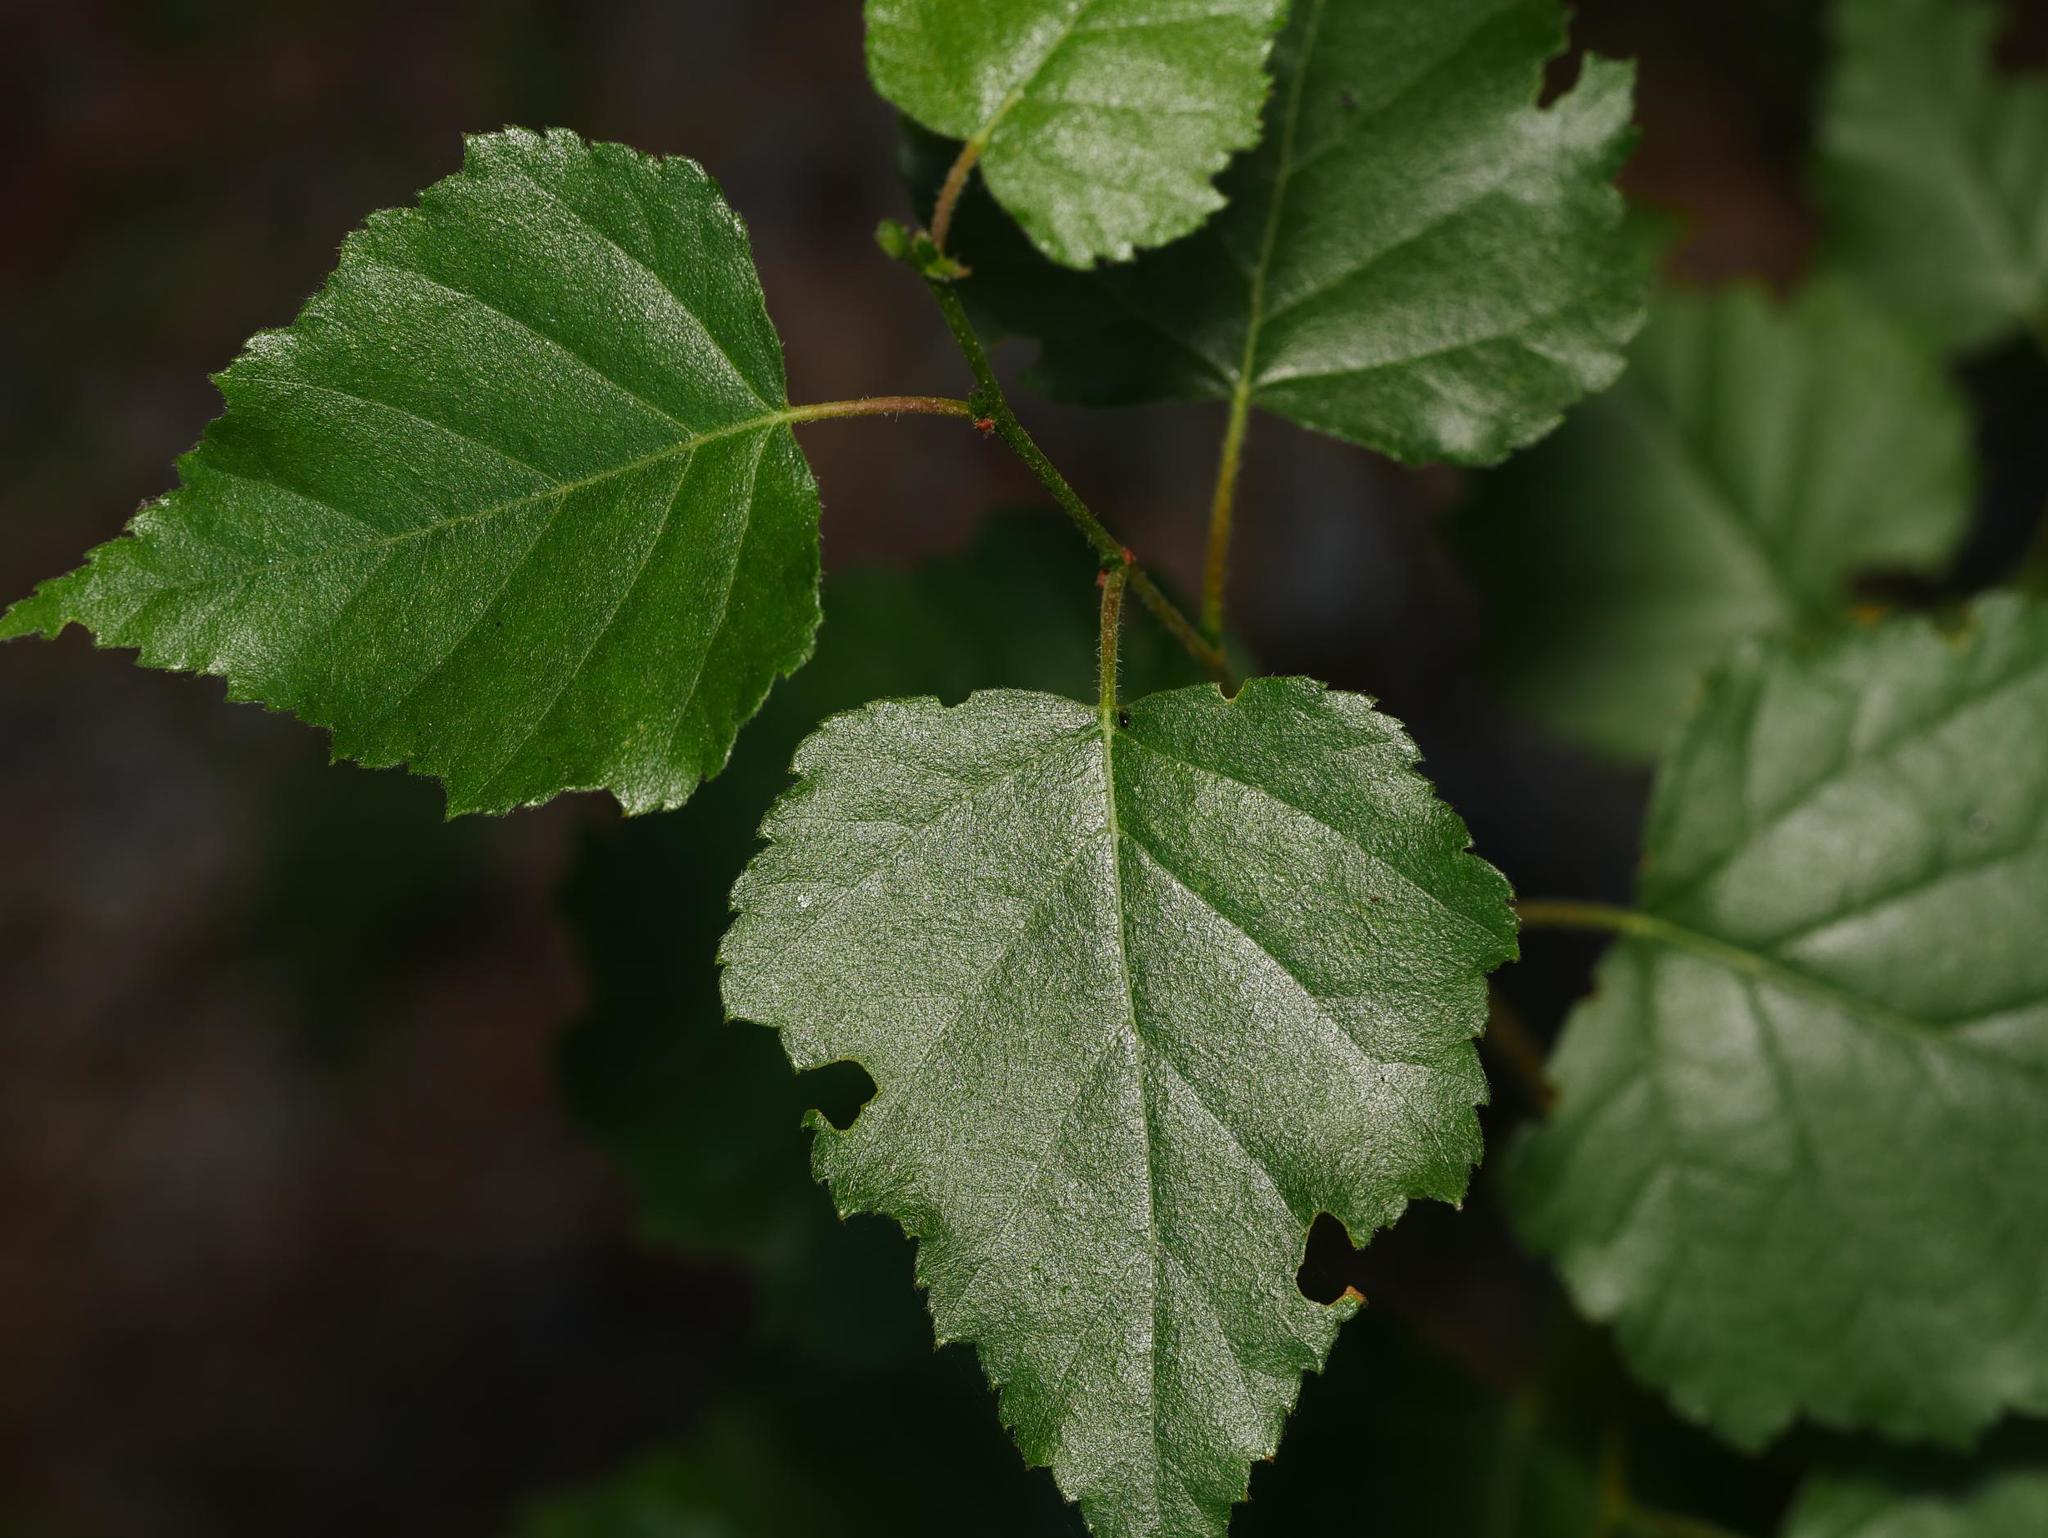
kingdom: Plantae
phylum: Tracheophyta
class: Magnoliopsida
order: Fagales
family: Betulaceae
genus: Betula
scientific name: Betula pendula
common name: Silver birch
